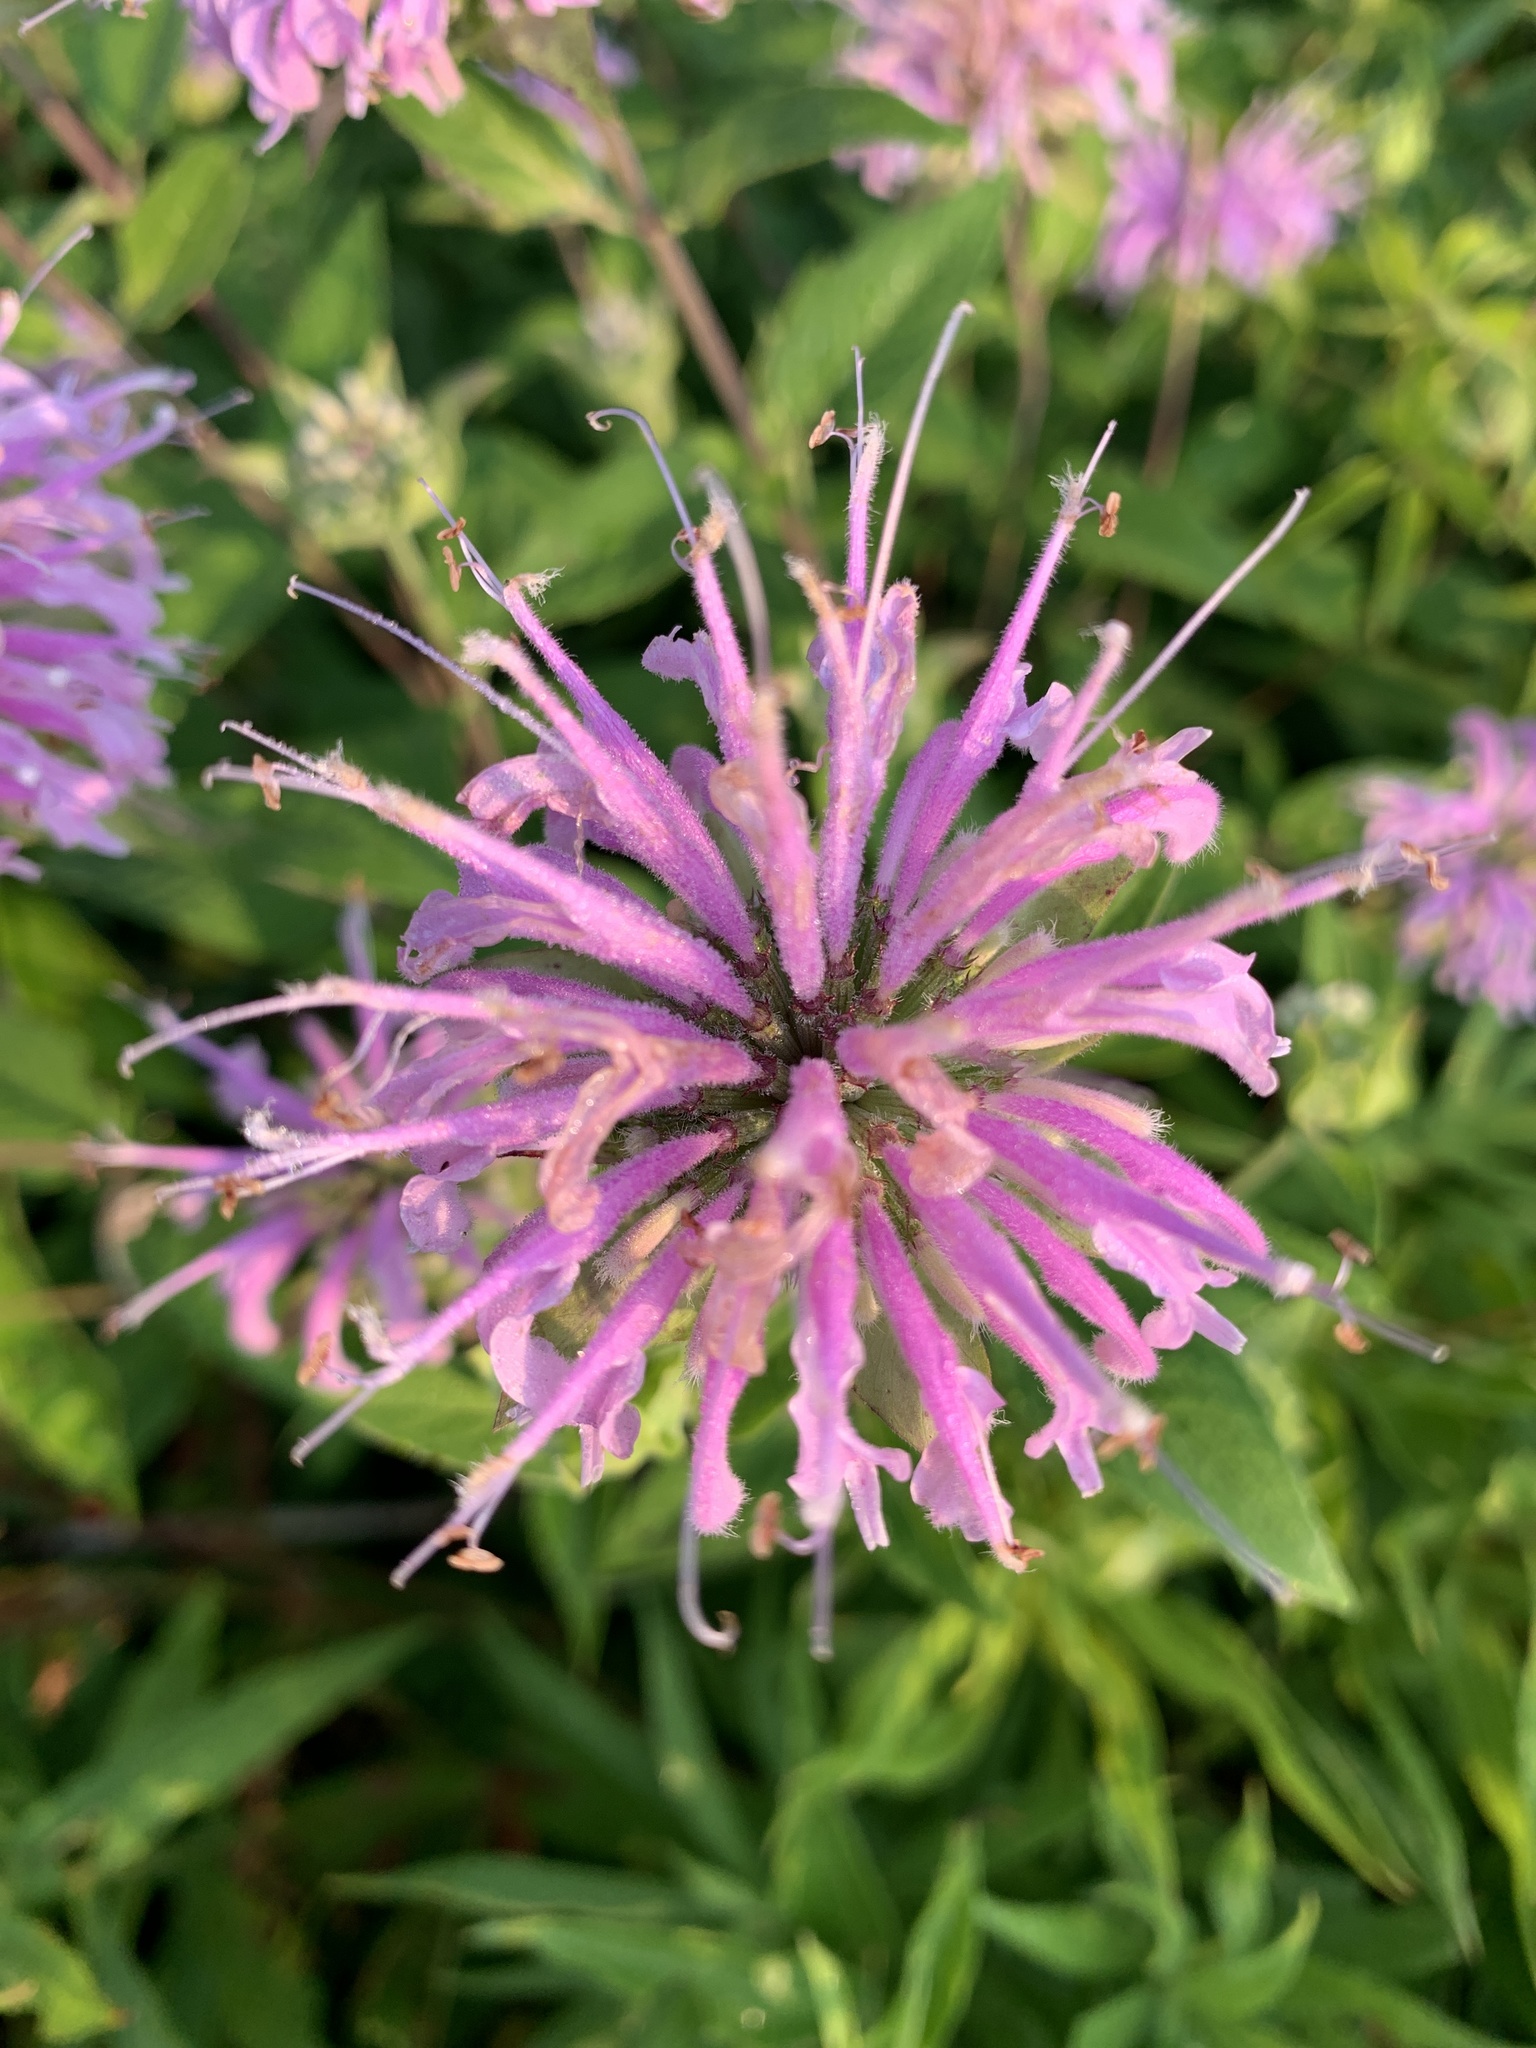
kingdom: Plantae
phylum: Tracheophyta
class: Magnoliopsida
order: Lamiales
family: Lamiaceae
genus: Monarda
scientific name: Monarda fistulosa
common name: Purple beebalm
